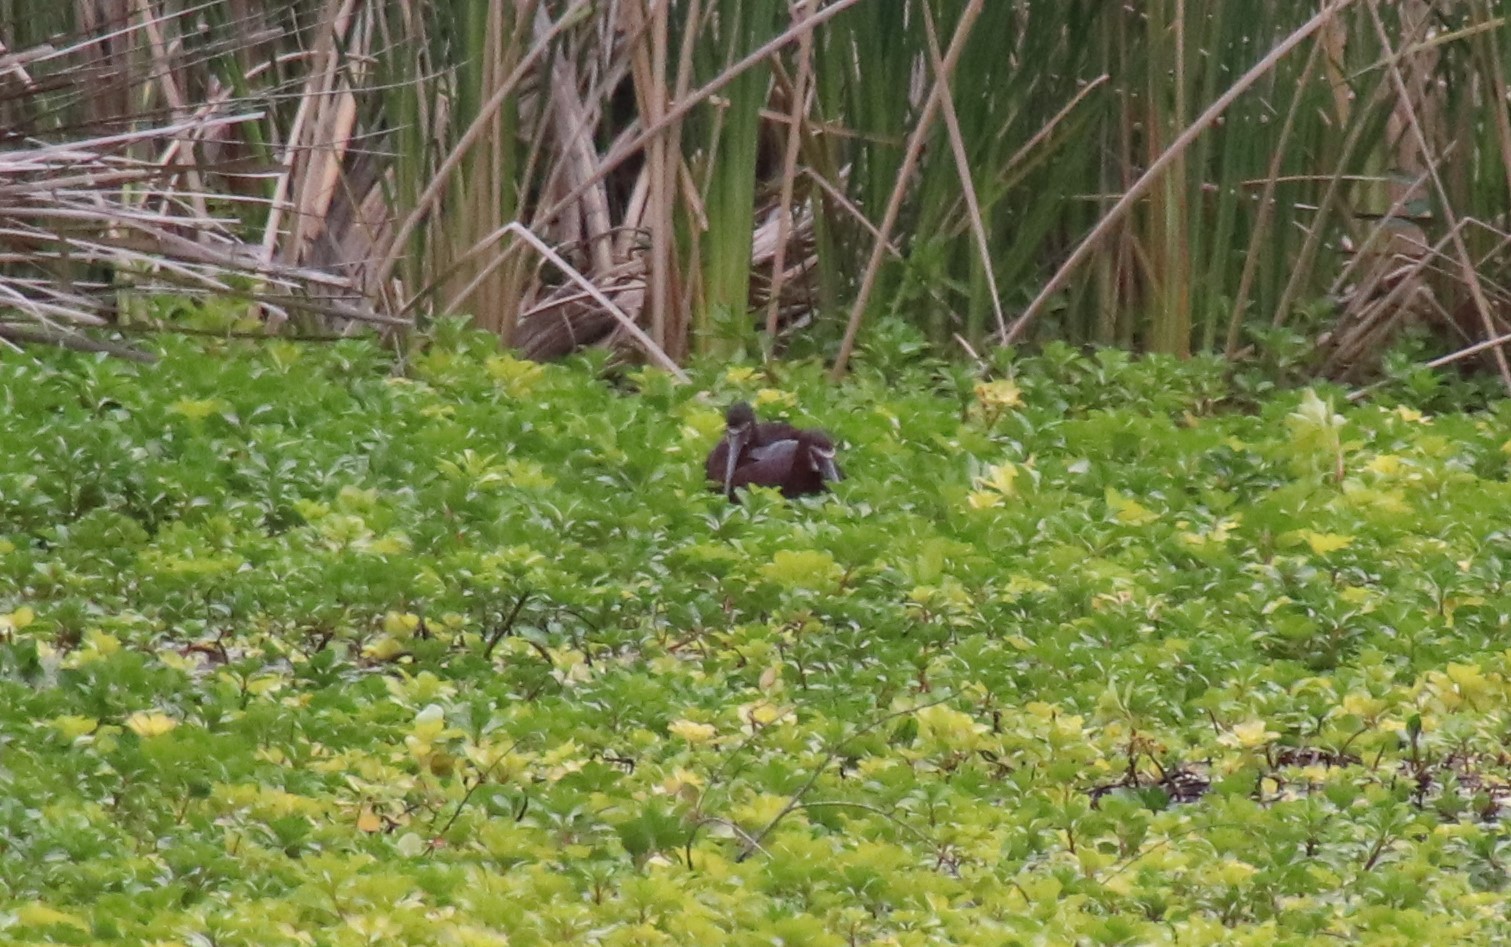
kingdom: Animalia
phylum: Chordata
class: Aves
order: Pelecaniformes
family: Threskiornithidae
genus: Plegadis
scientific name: Plegadis chihi
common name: White-faced ibis
